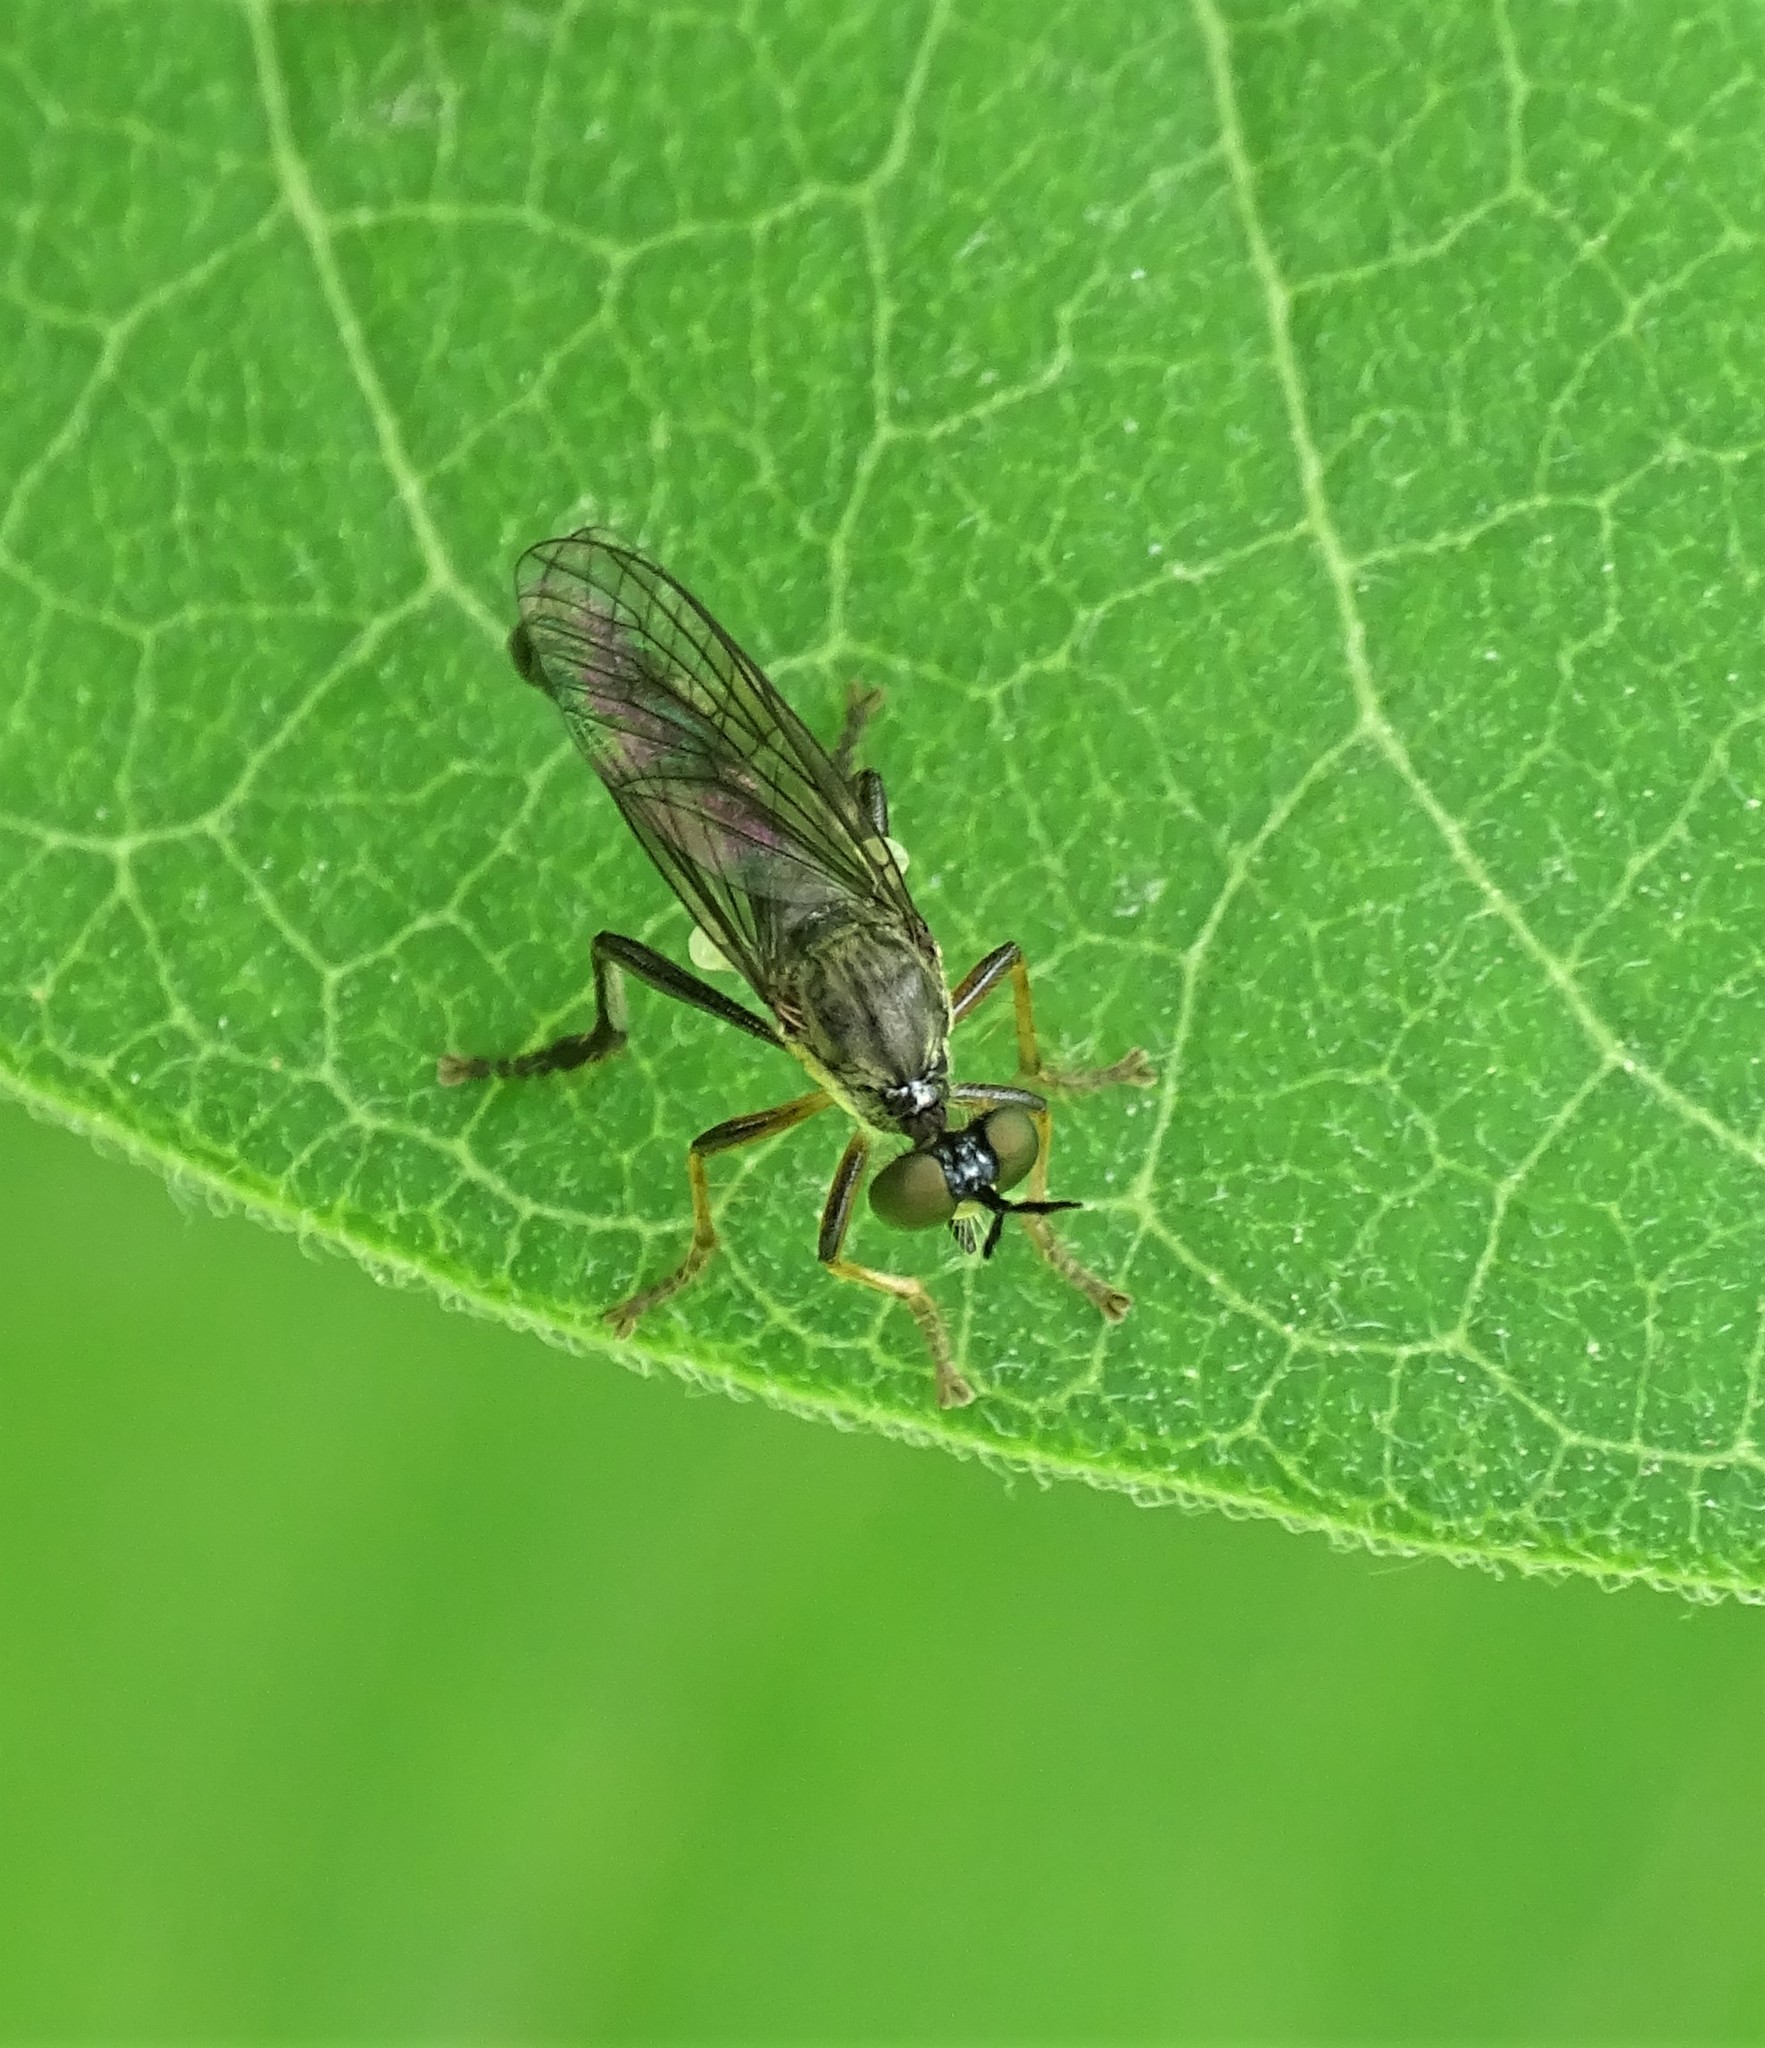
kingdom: Animalia
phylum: Arthropoda
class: Insecta
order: Diptera
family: Asilidae
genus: Dioctria
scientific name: Dioctria hyalipennis
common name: Stripe-legged robberfly
